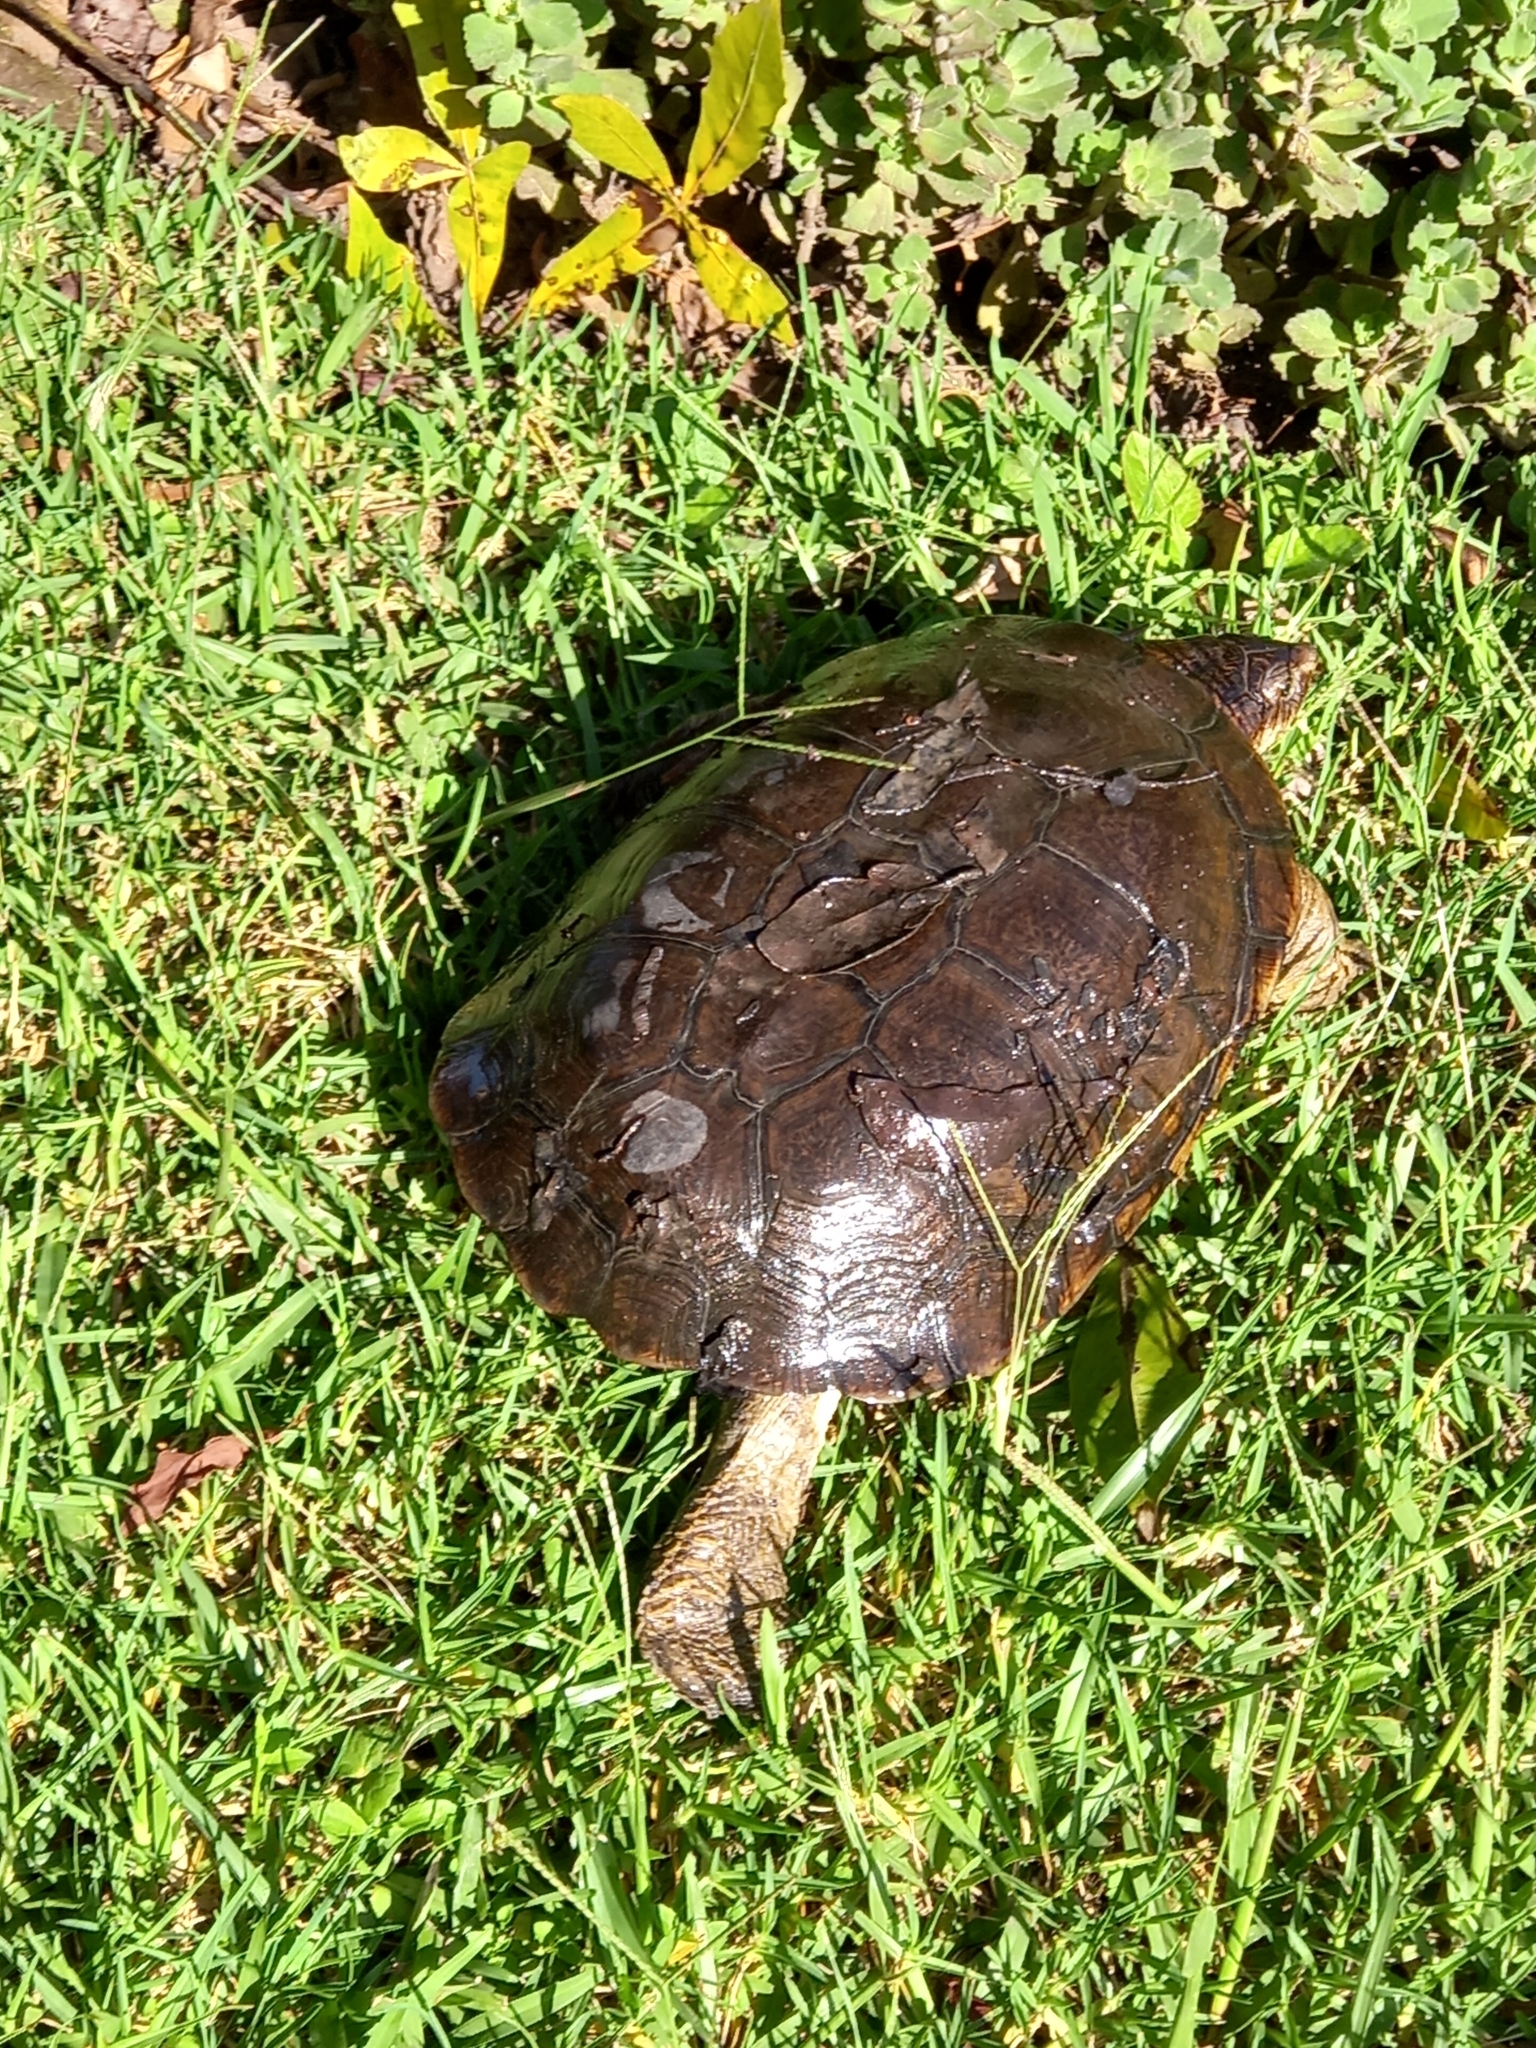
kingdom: Animalia
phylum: Chordata
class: Testudines
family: Pelomedusidae
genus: Pelomedusa
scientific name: Pelomedusa galeata
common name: South african helmeted terrapin
